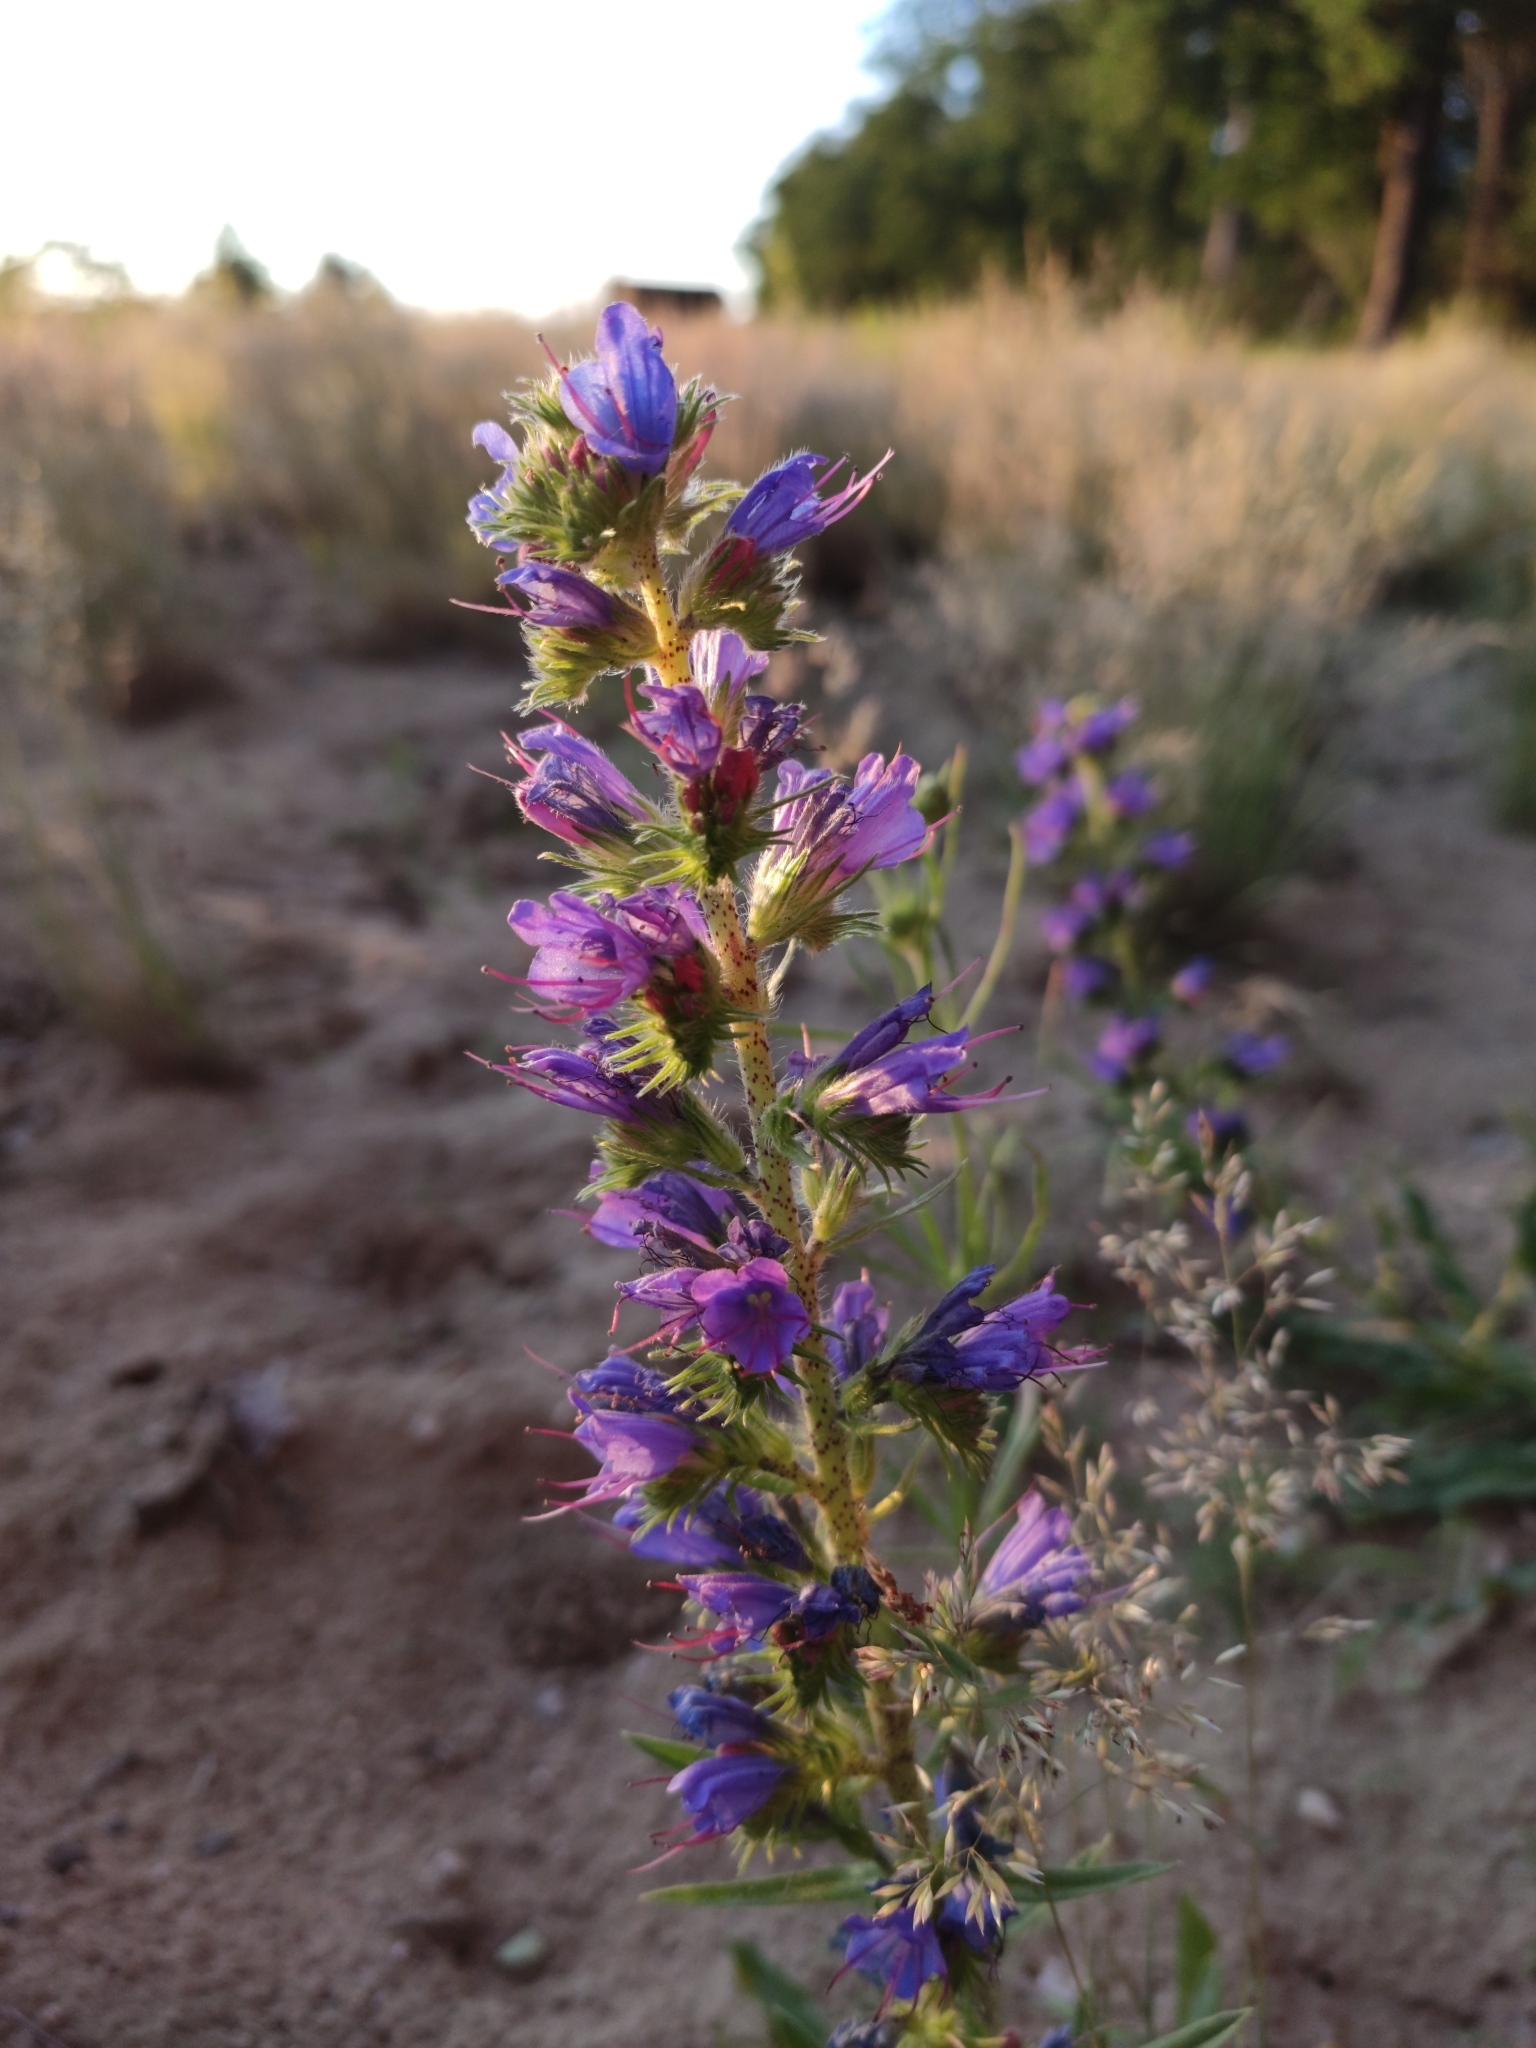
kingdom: Plantae
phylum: Tracheophyta
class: Magnoliopsida
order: Boraginales
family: Boraginaceae
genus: Echium
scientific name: Echium vulgare
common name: Common viper's bugloss
